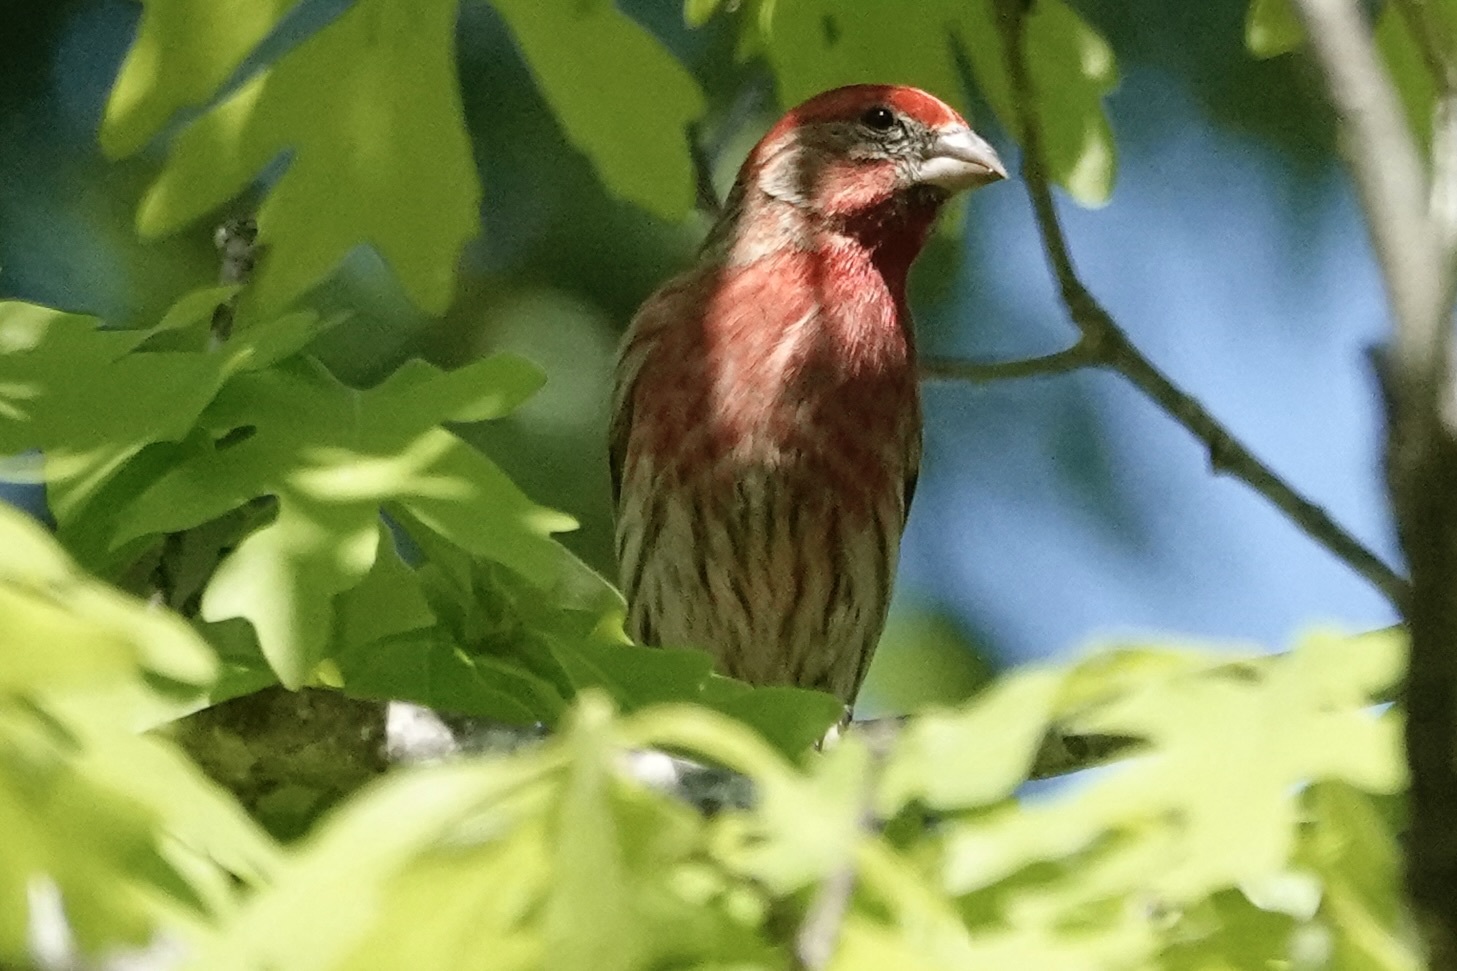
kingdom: Animalia
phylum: Chordata
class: Aves
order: Passeriformes
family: Fringillidae
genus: Haemorhous
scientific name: Haemorhous mexicanus
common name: House finch
